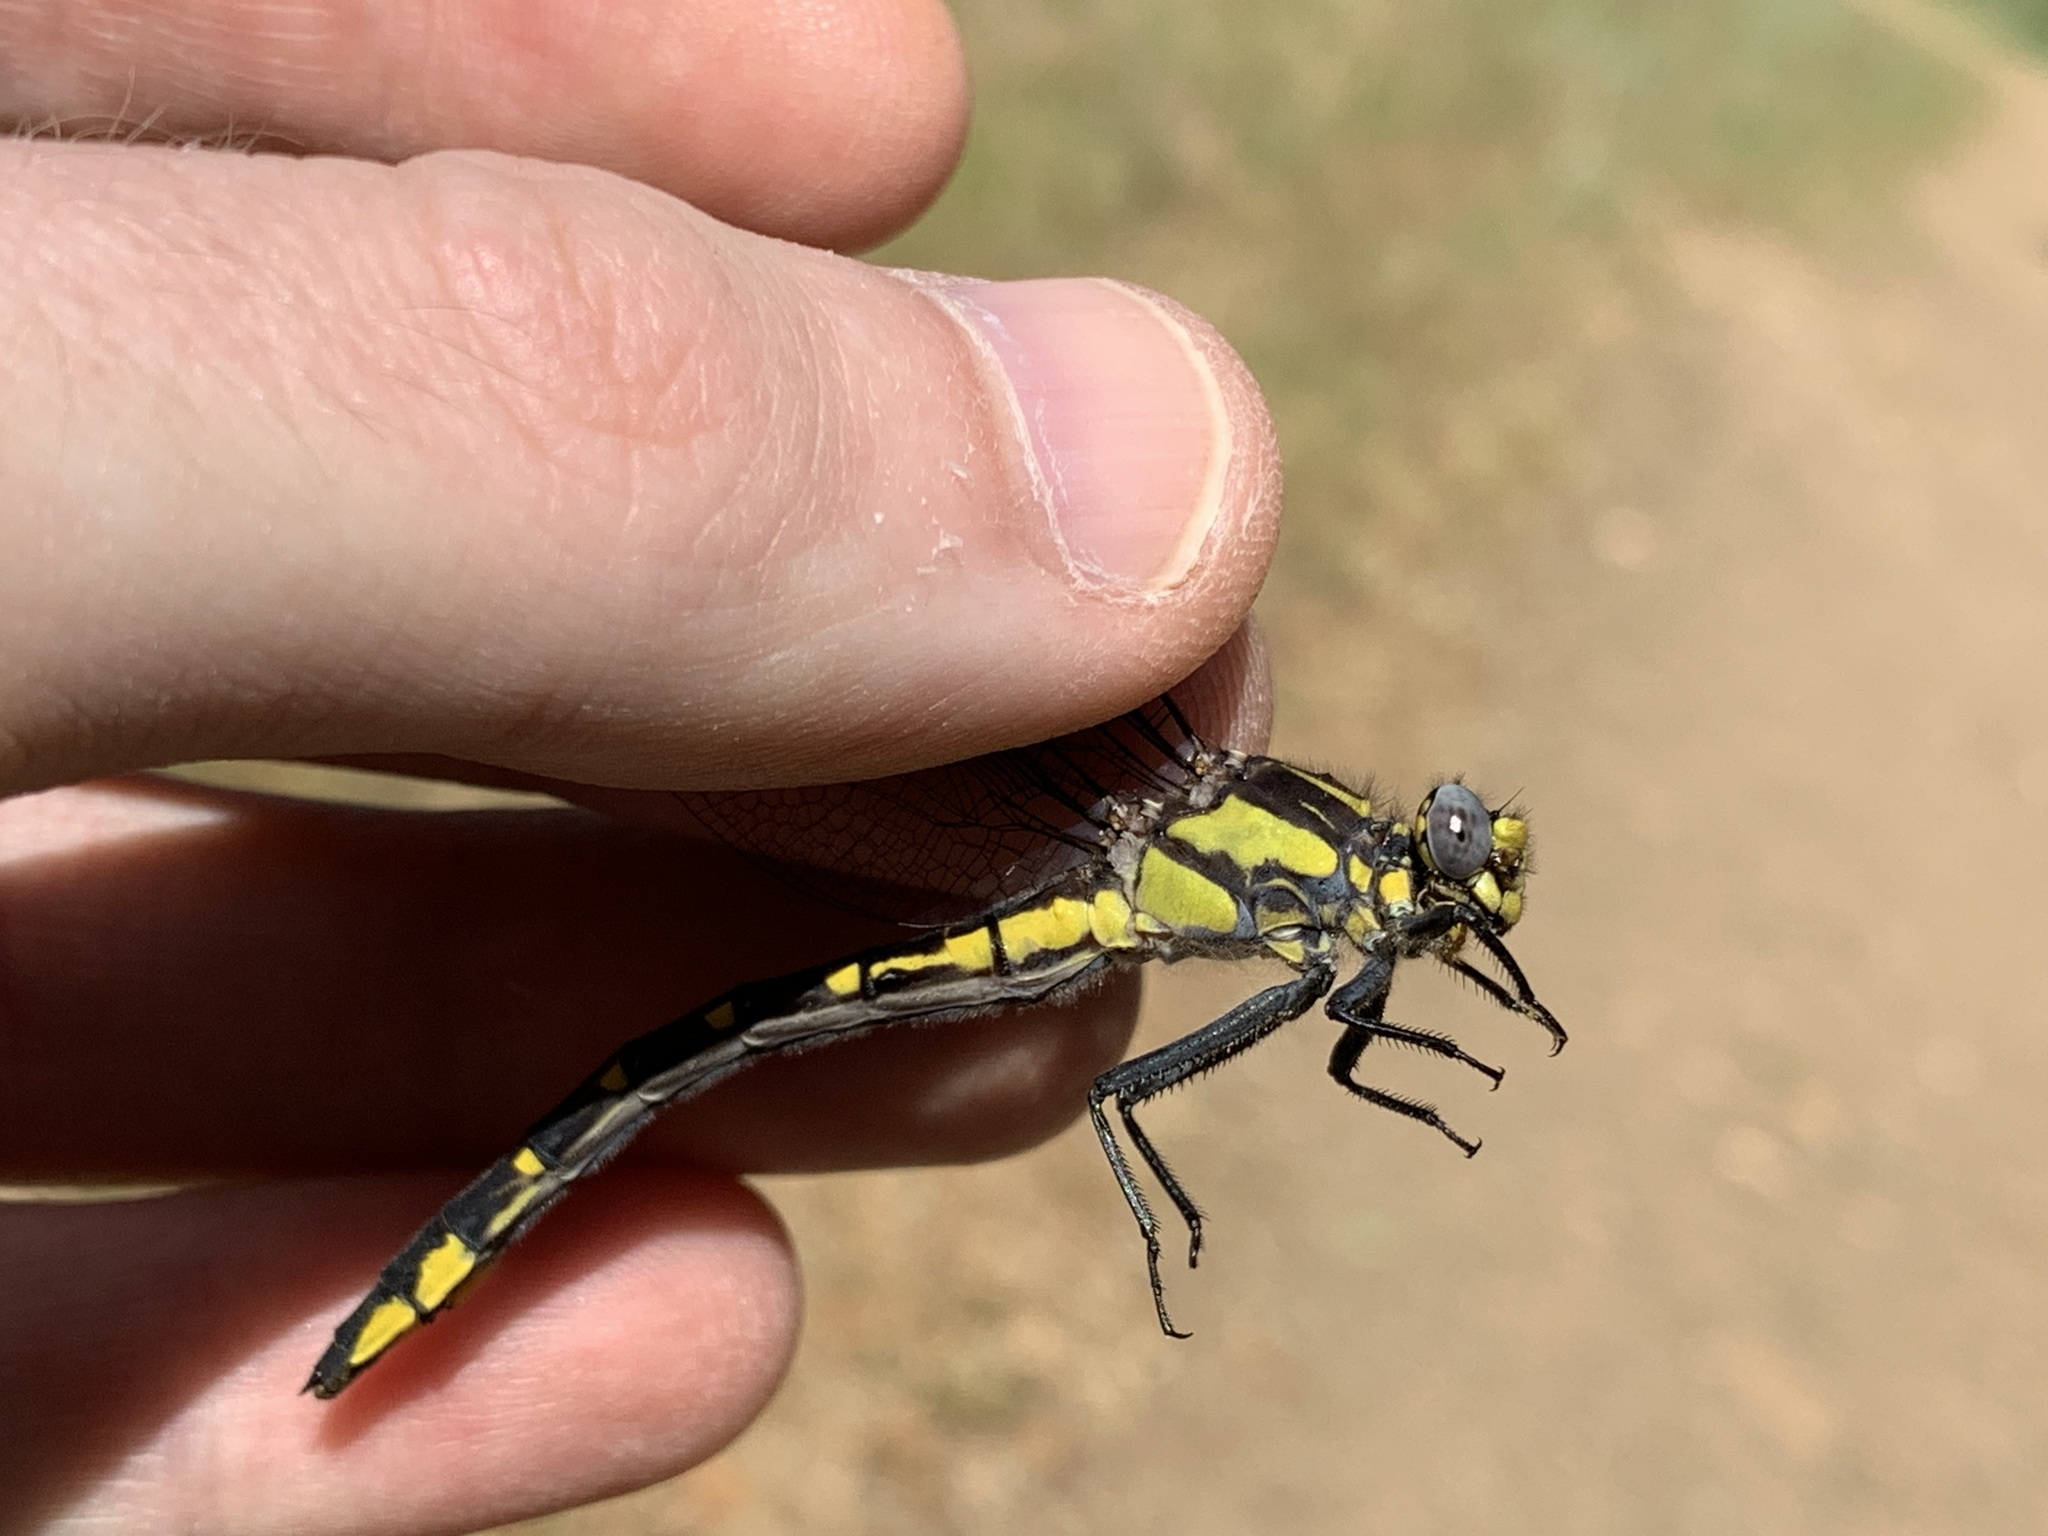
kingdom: Animalia
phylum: Arthropoda
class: Insecta
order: Odonata
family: Gomphidae
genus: Phanogomphus
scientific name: Phanogomphus kurilis
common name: Pacific clubtail
